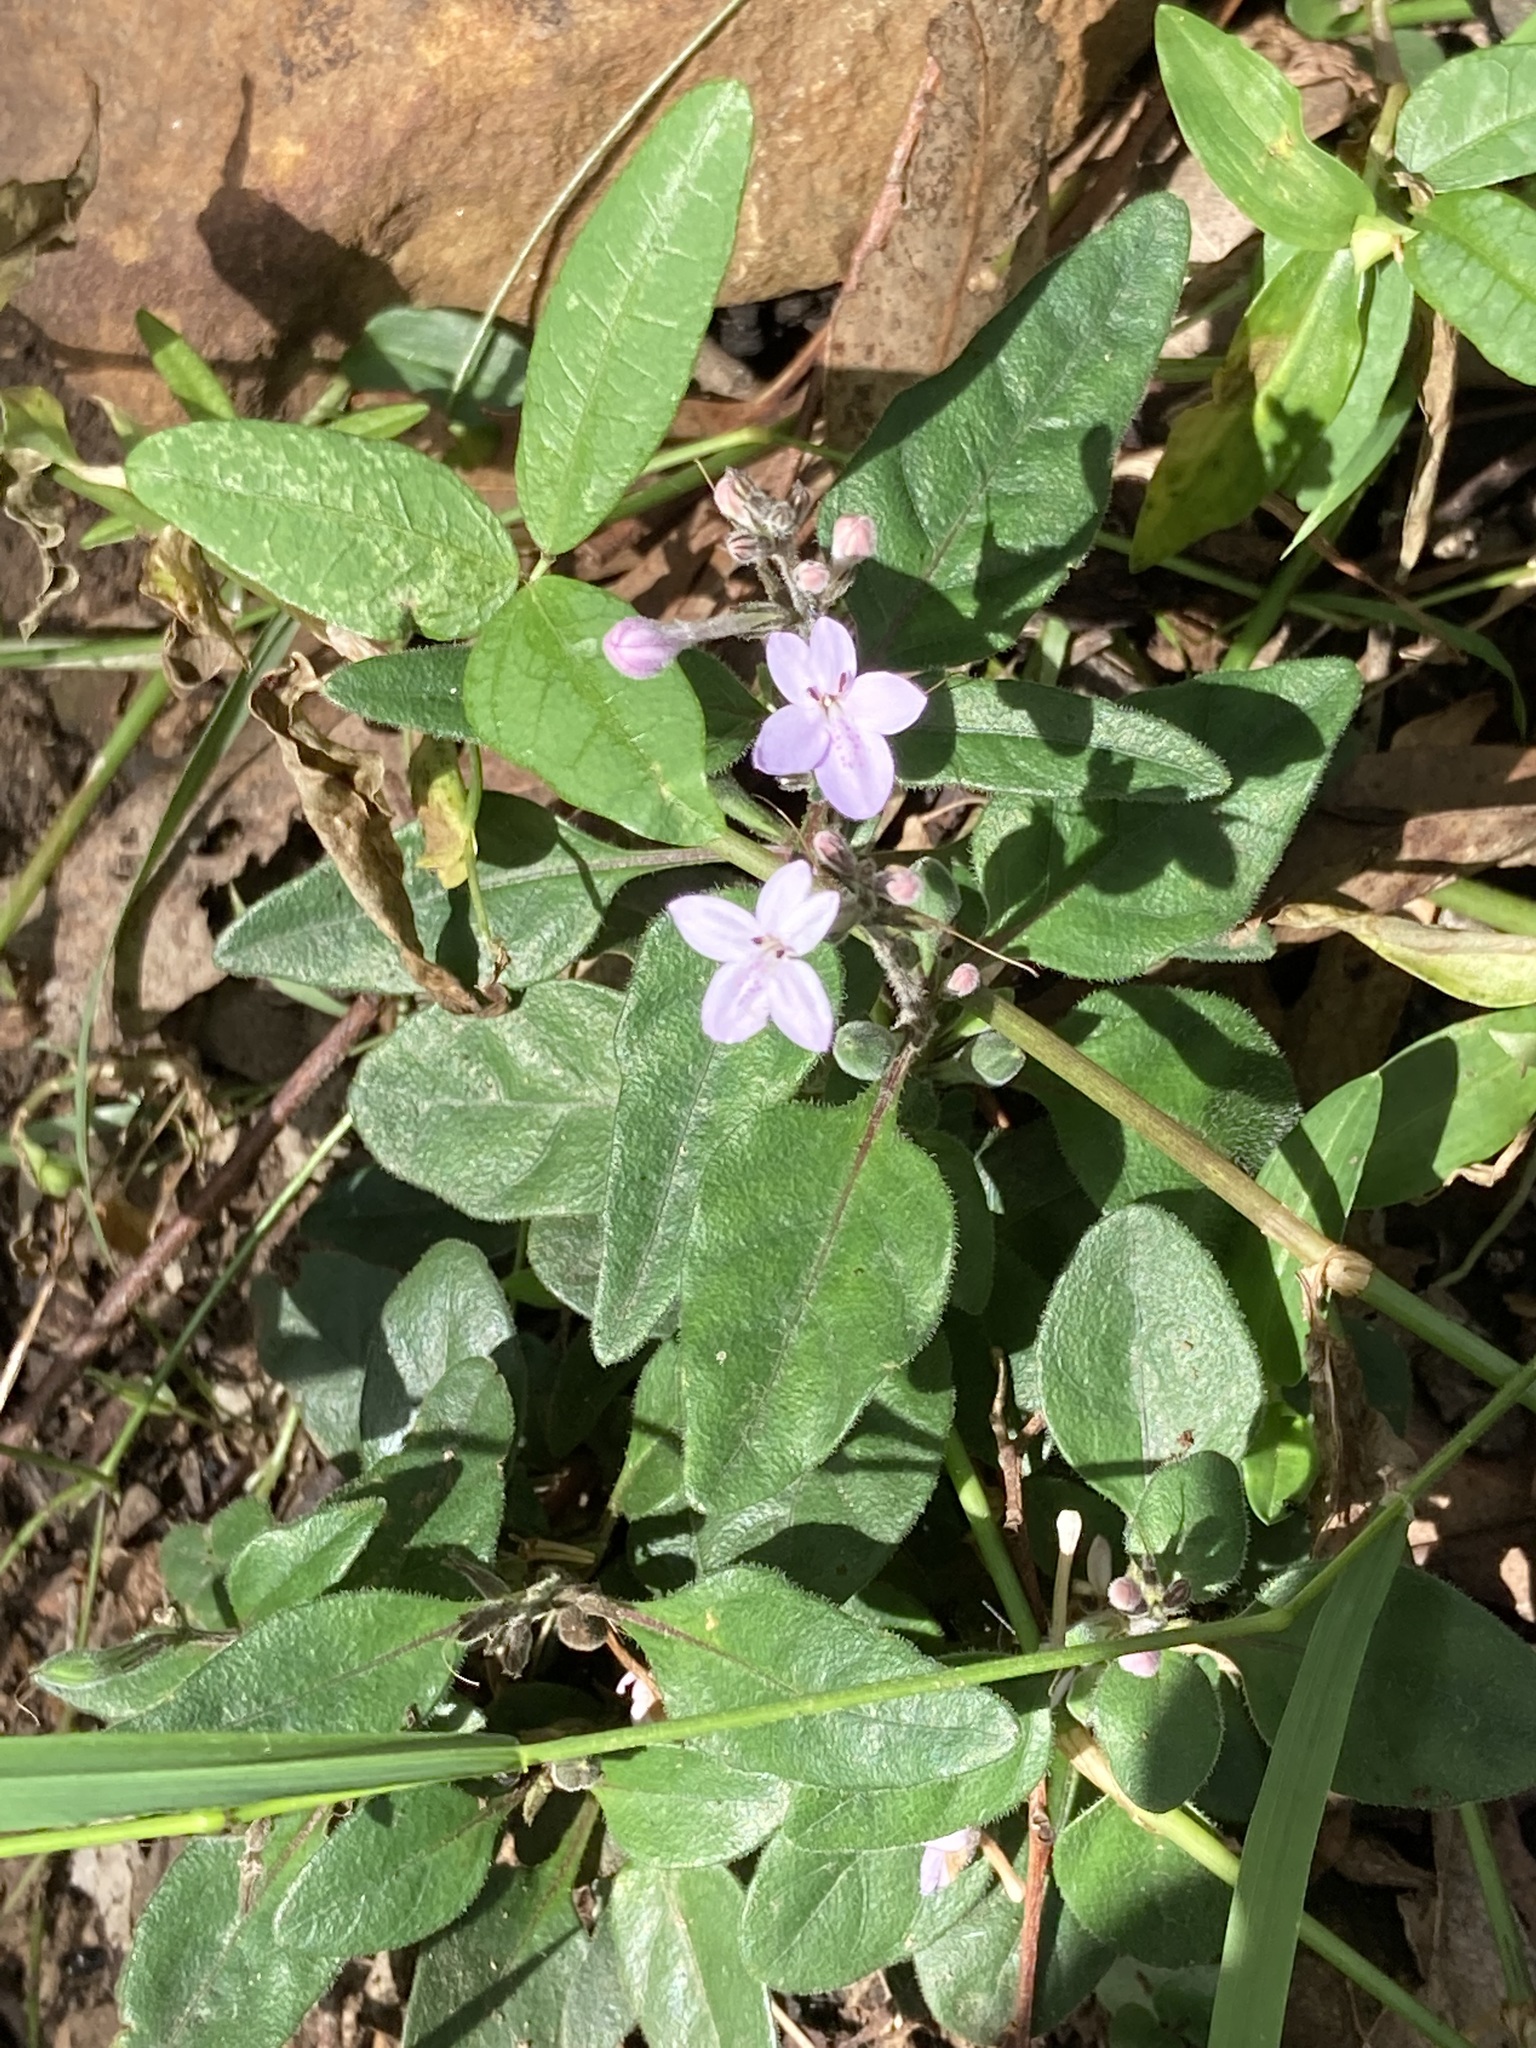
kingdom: Plantae
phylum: Tracheophyta
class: Magnoliopsida
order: Lamiales
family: Acanthaceae
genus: Pseuderanthemum
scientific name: Pseuderanthemum variabile
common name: Night and afternoon
